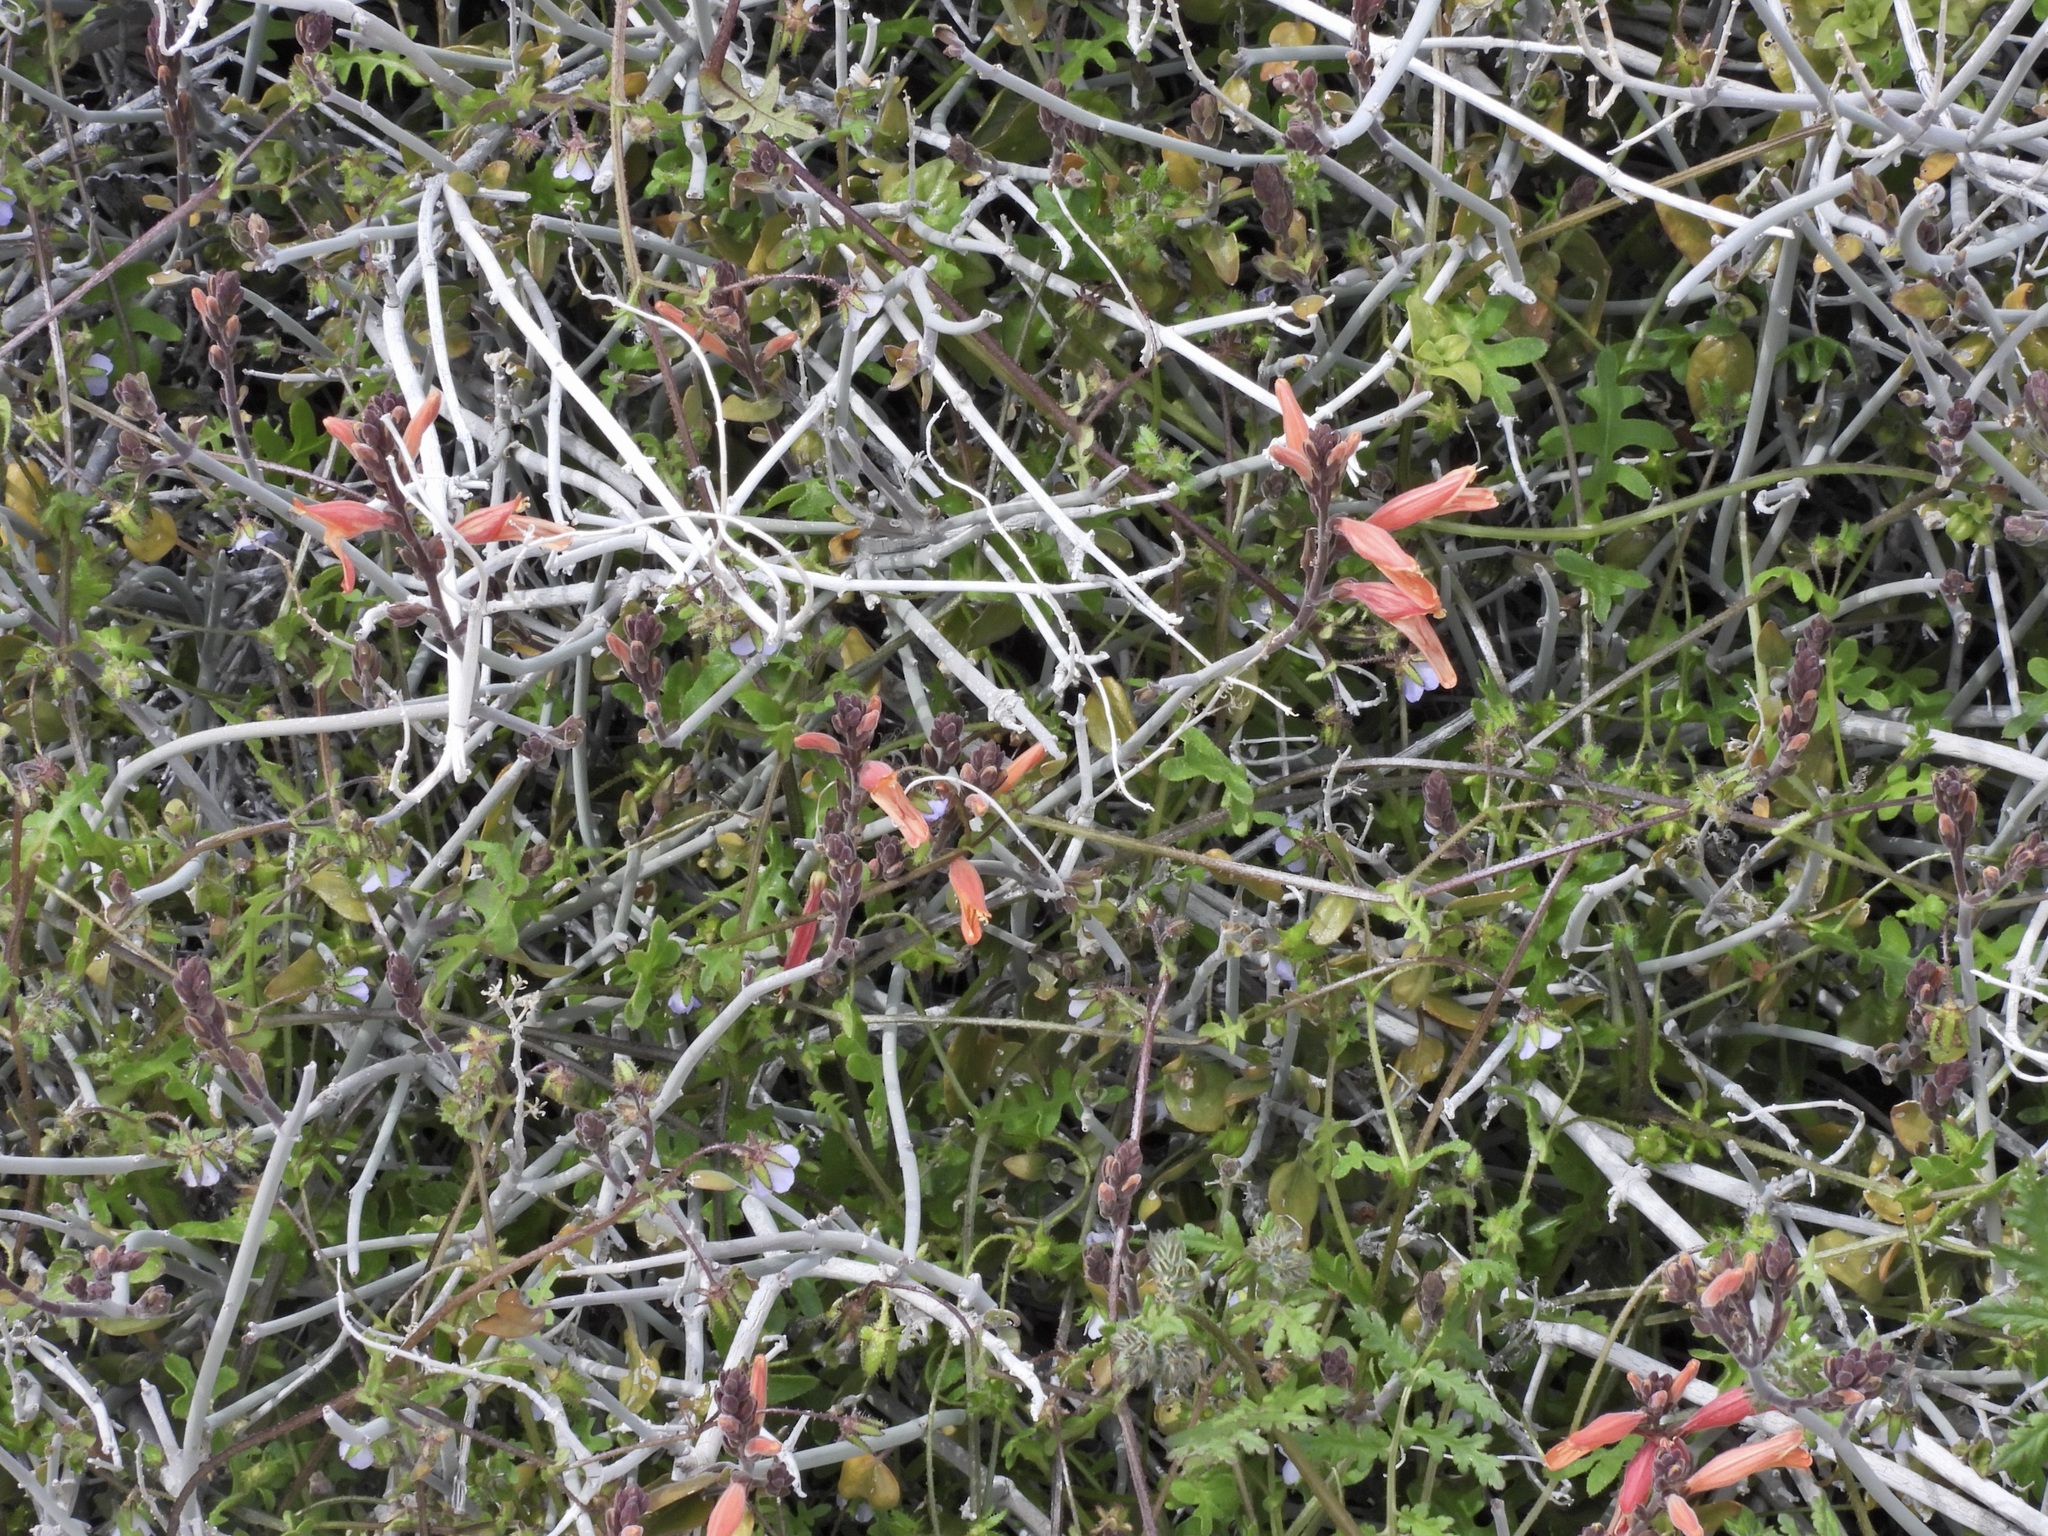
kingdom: Plantae
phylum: Tracheophyta
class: Magnoliopsida
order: Lamiales
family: Acanthaceae
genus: Justicia
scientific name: Justicia californica
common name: Chuparosa-honeysuckle
